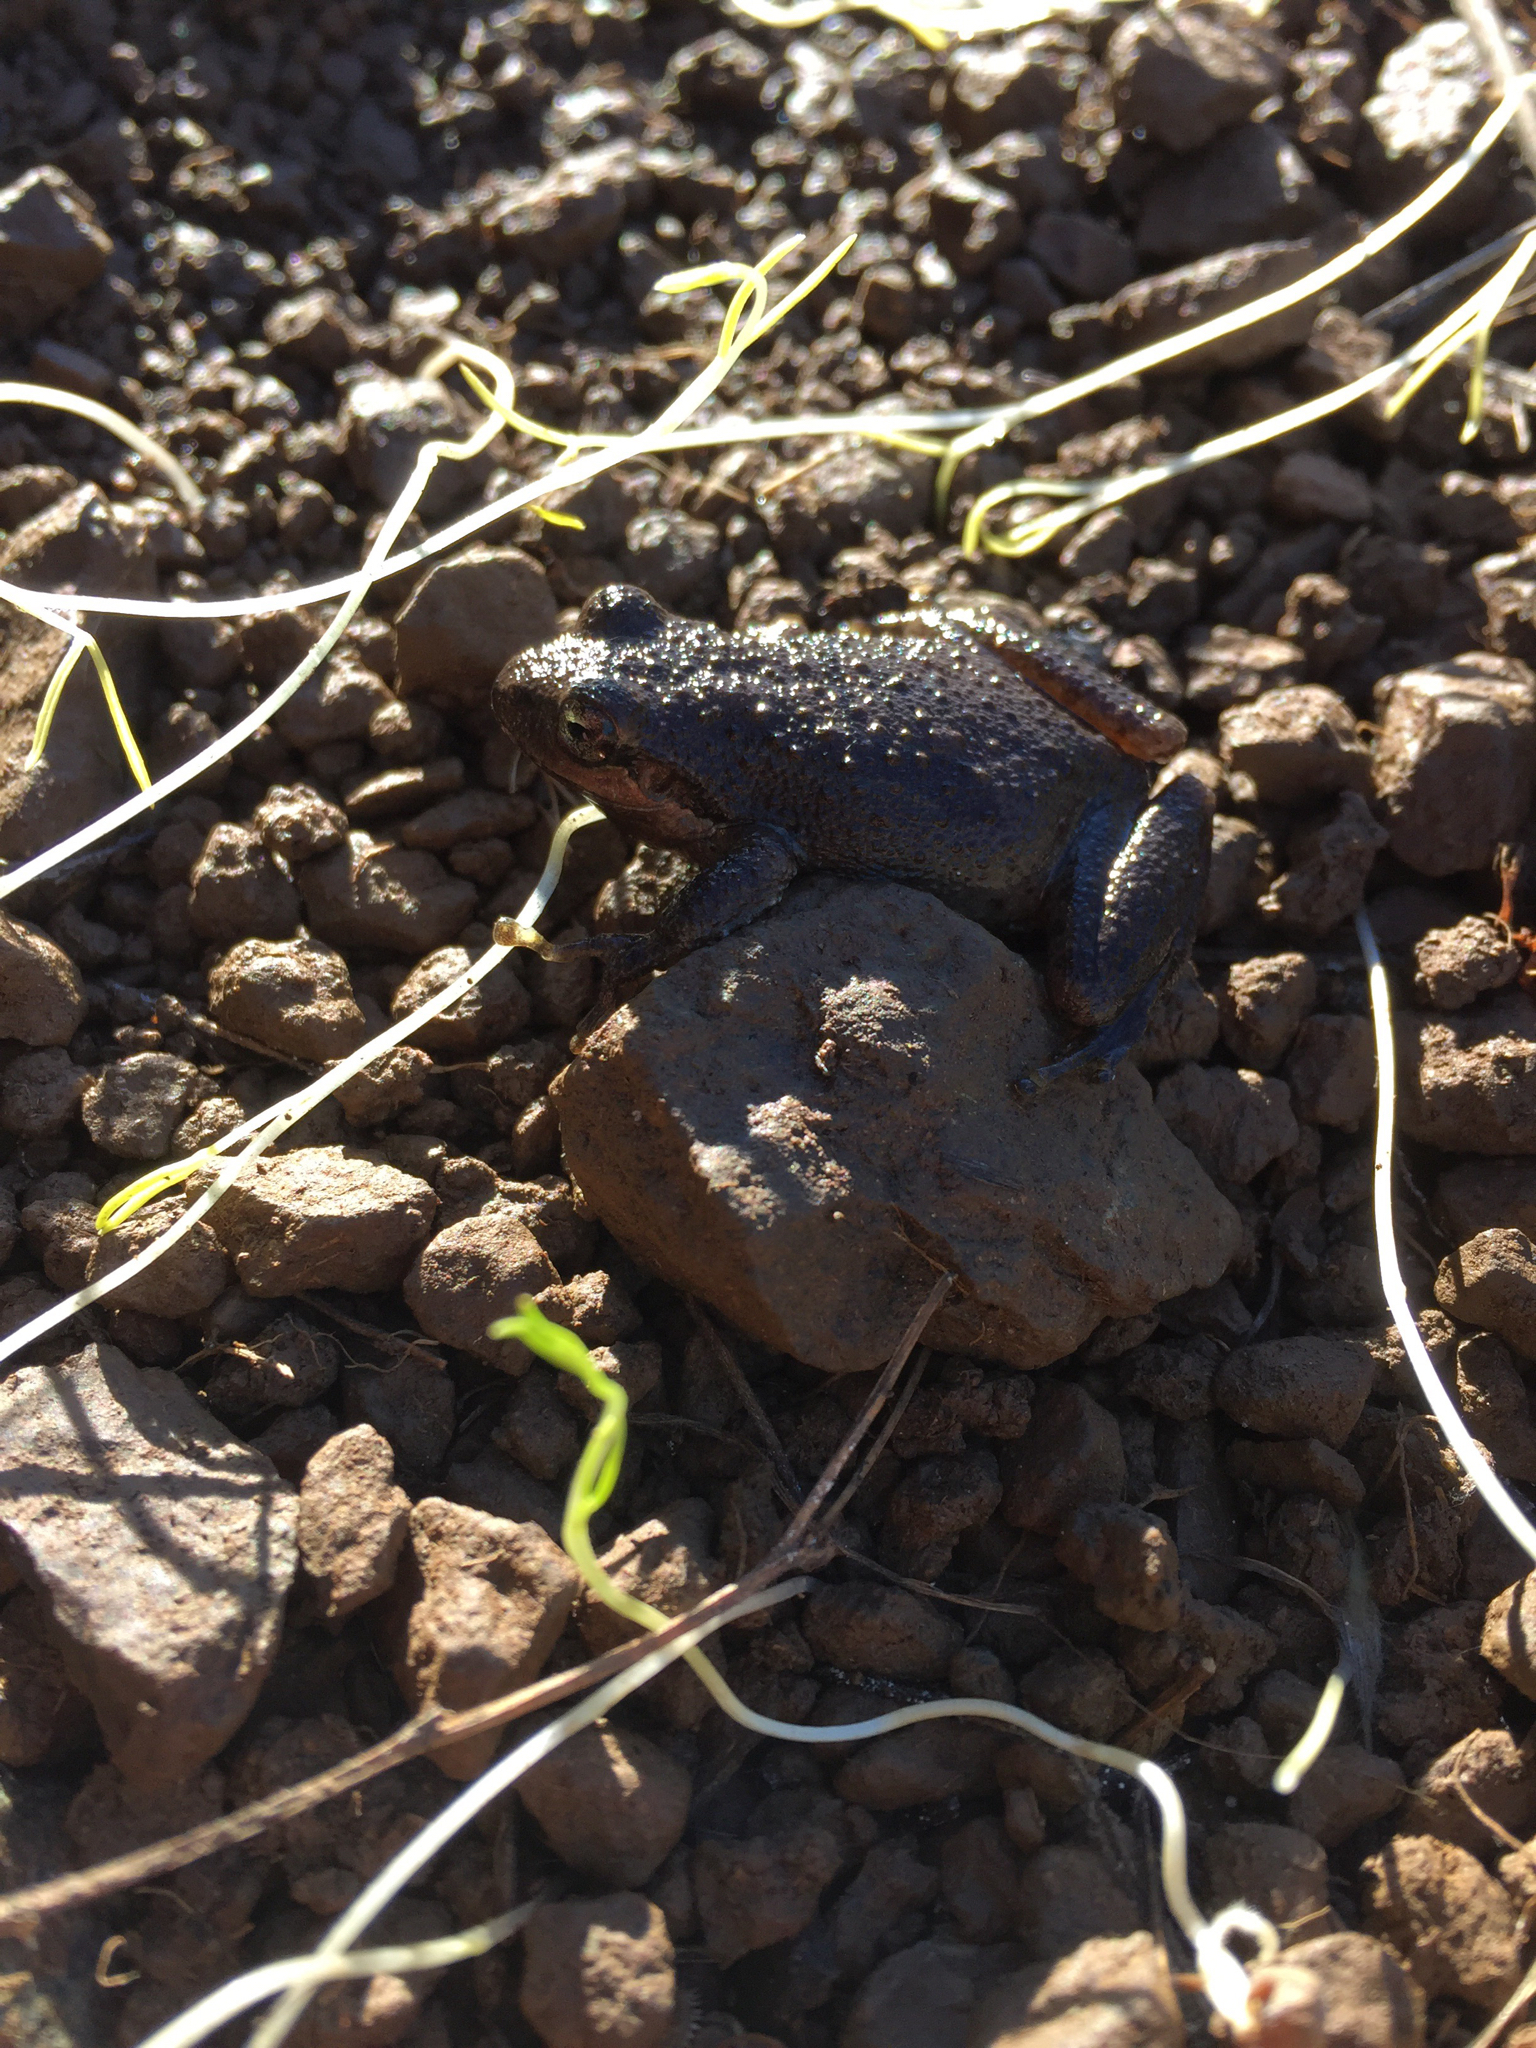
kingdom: Animalia
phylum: Chordata
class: Amphibia
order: Anura
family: Hylidae
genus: Pseudacris
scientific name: Pseudacris regilla
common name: Pacific chorus frog
